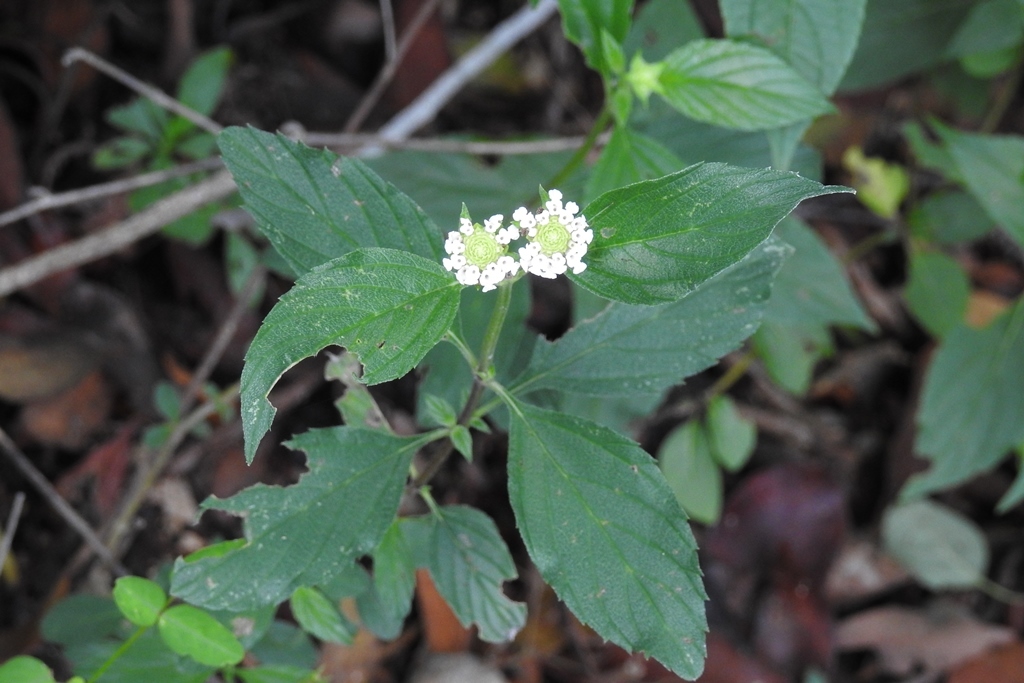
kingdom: Plantae
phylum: Tracheophyta
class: Magnoliopsida
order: Lamiales
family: Verbenaceae
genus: Lantana
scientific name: Lantana achyranthifolia
